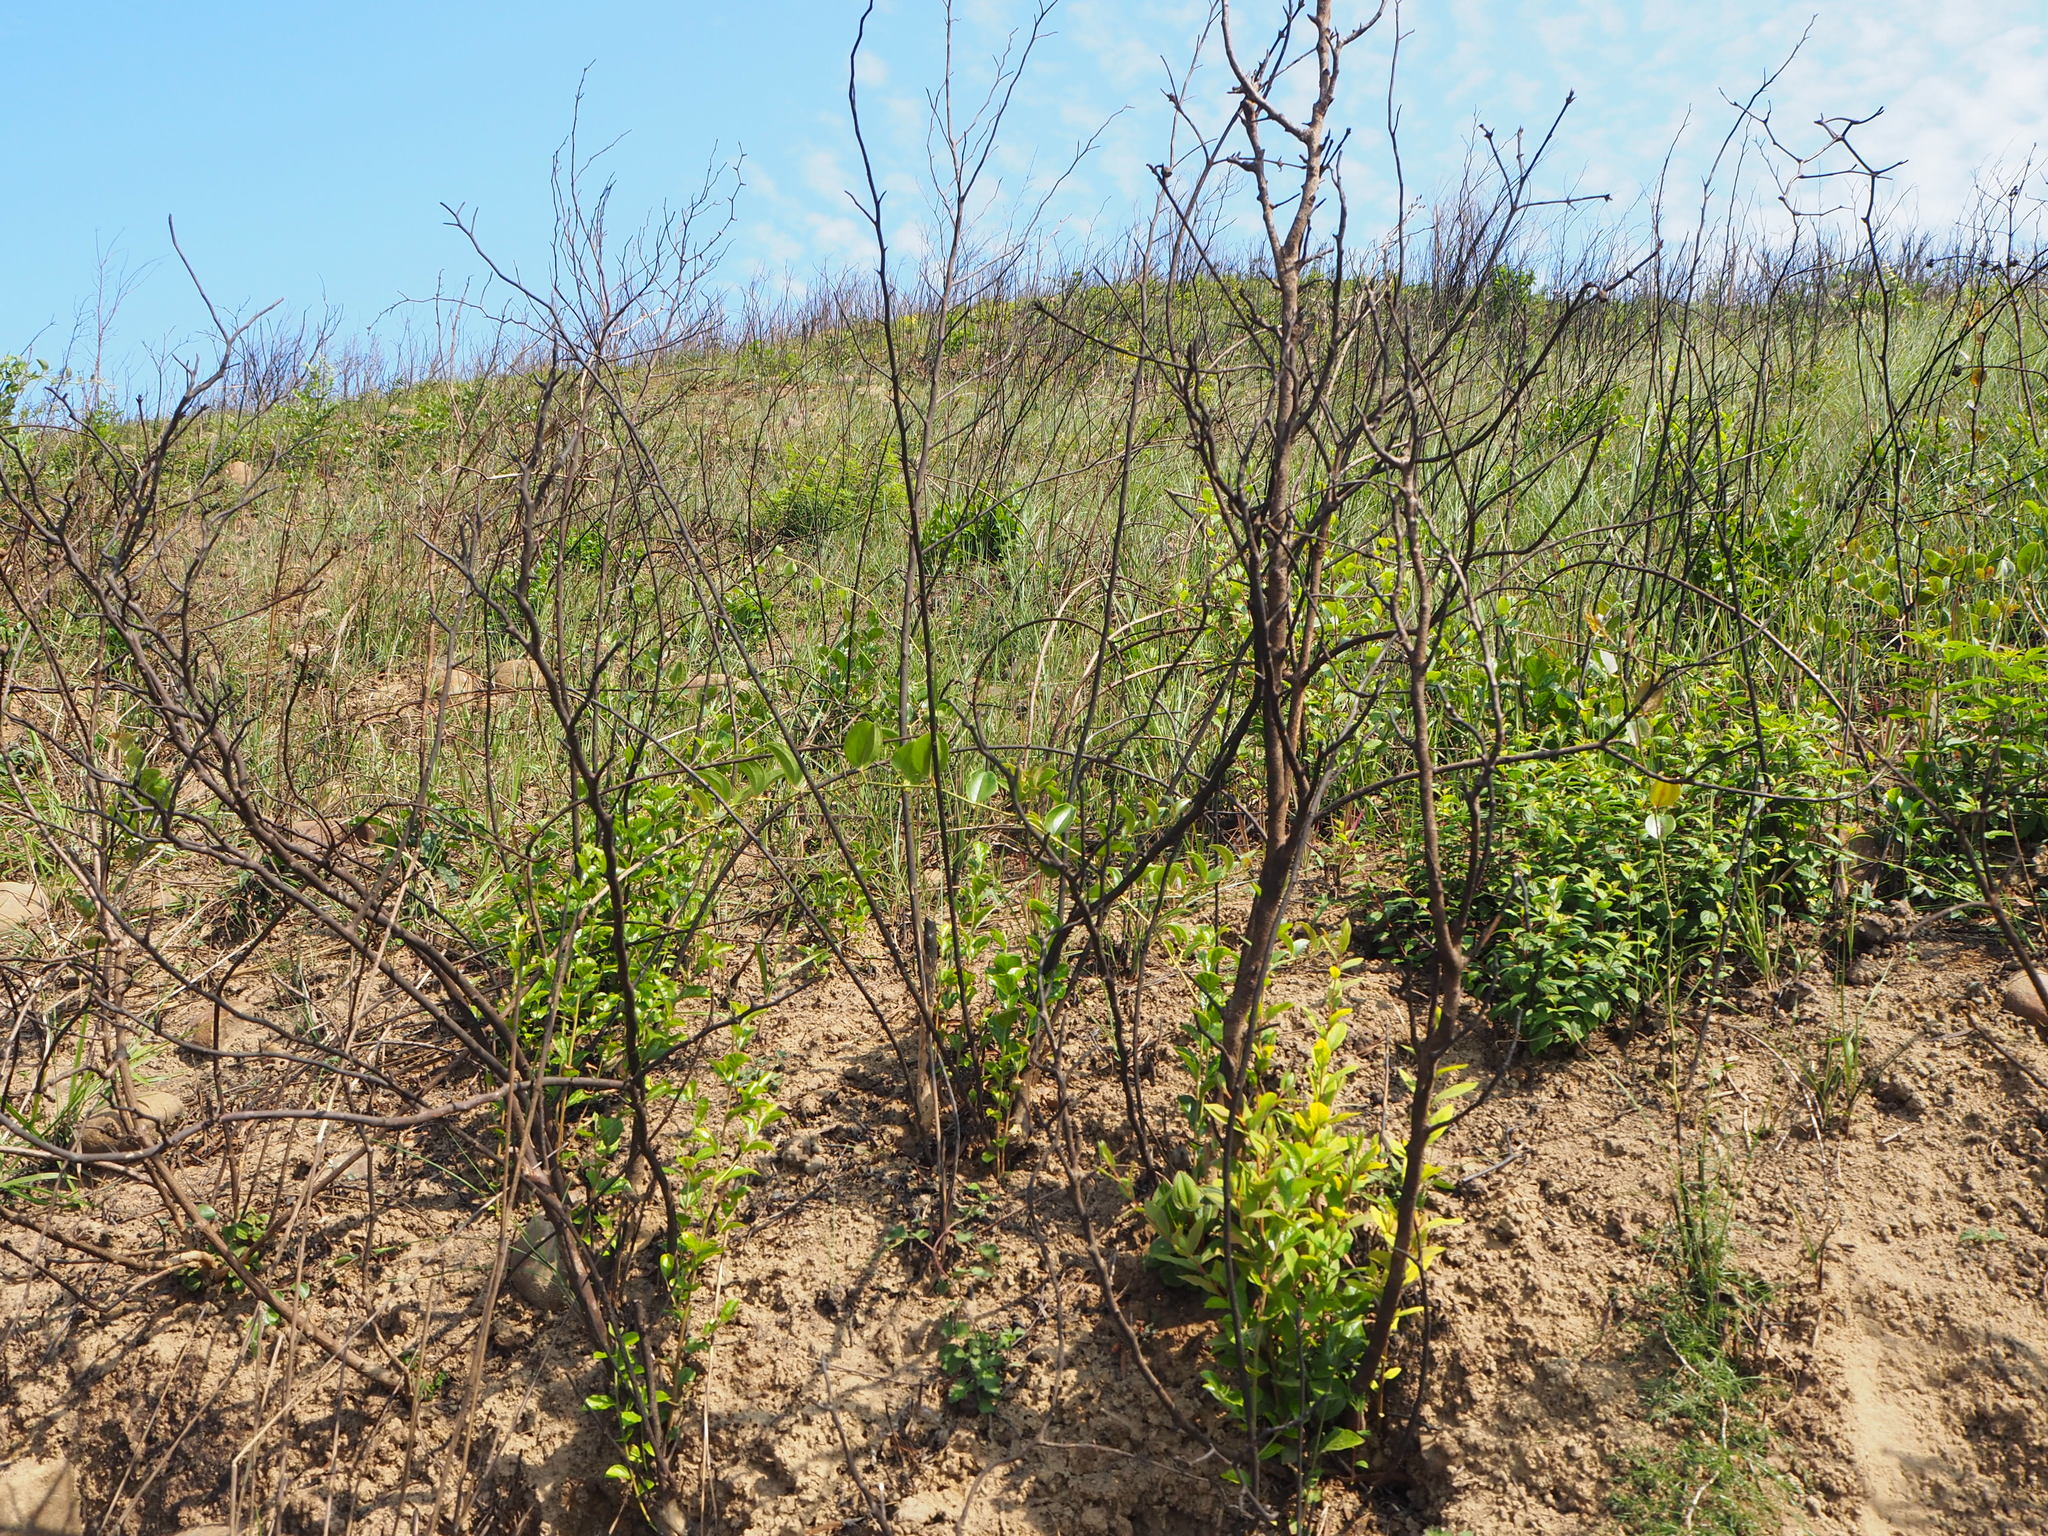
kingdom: Plantae
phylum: Tracheophyta
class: Magnoliopsida
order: Ericales
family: Styracaceae
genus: Styrax
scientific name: Styrax faberi
